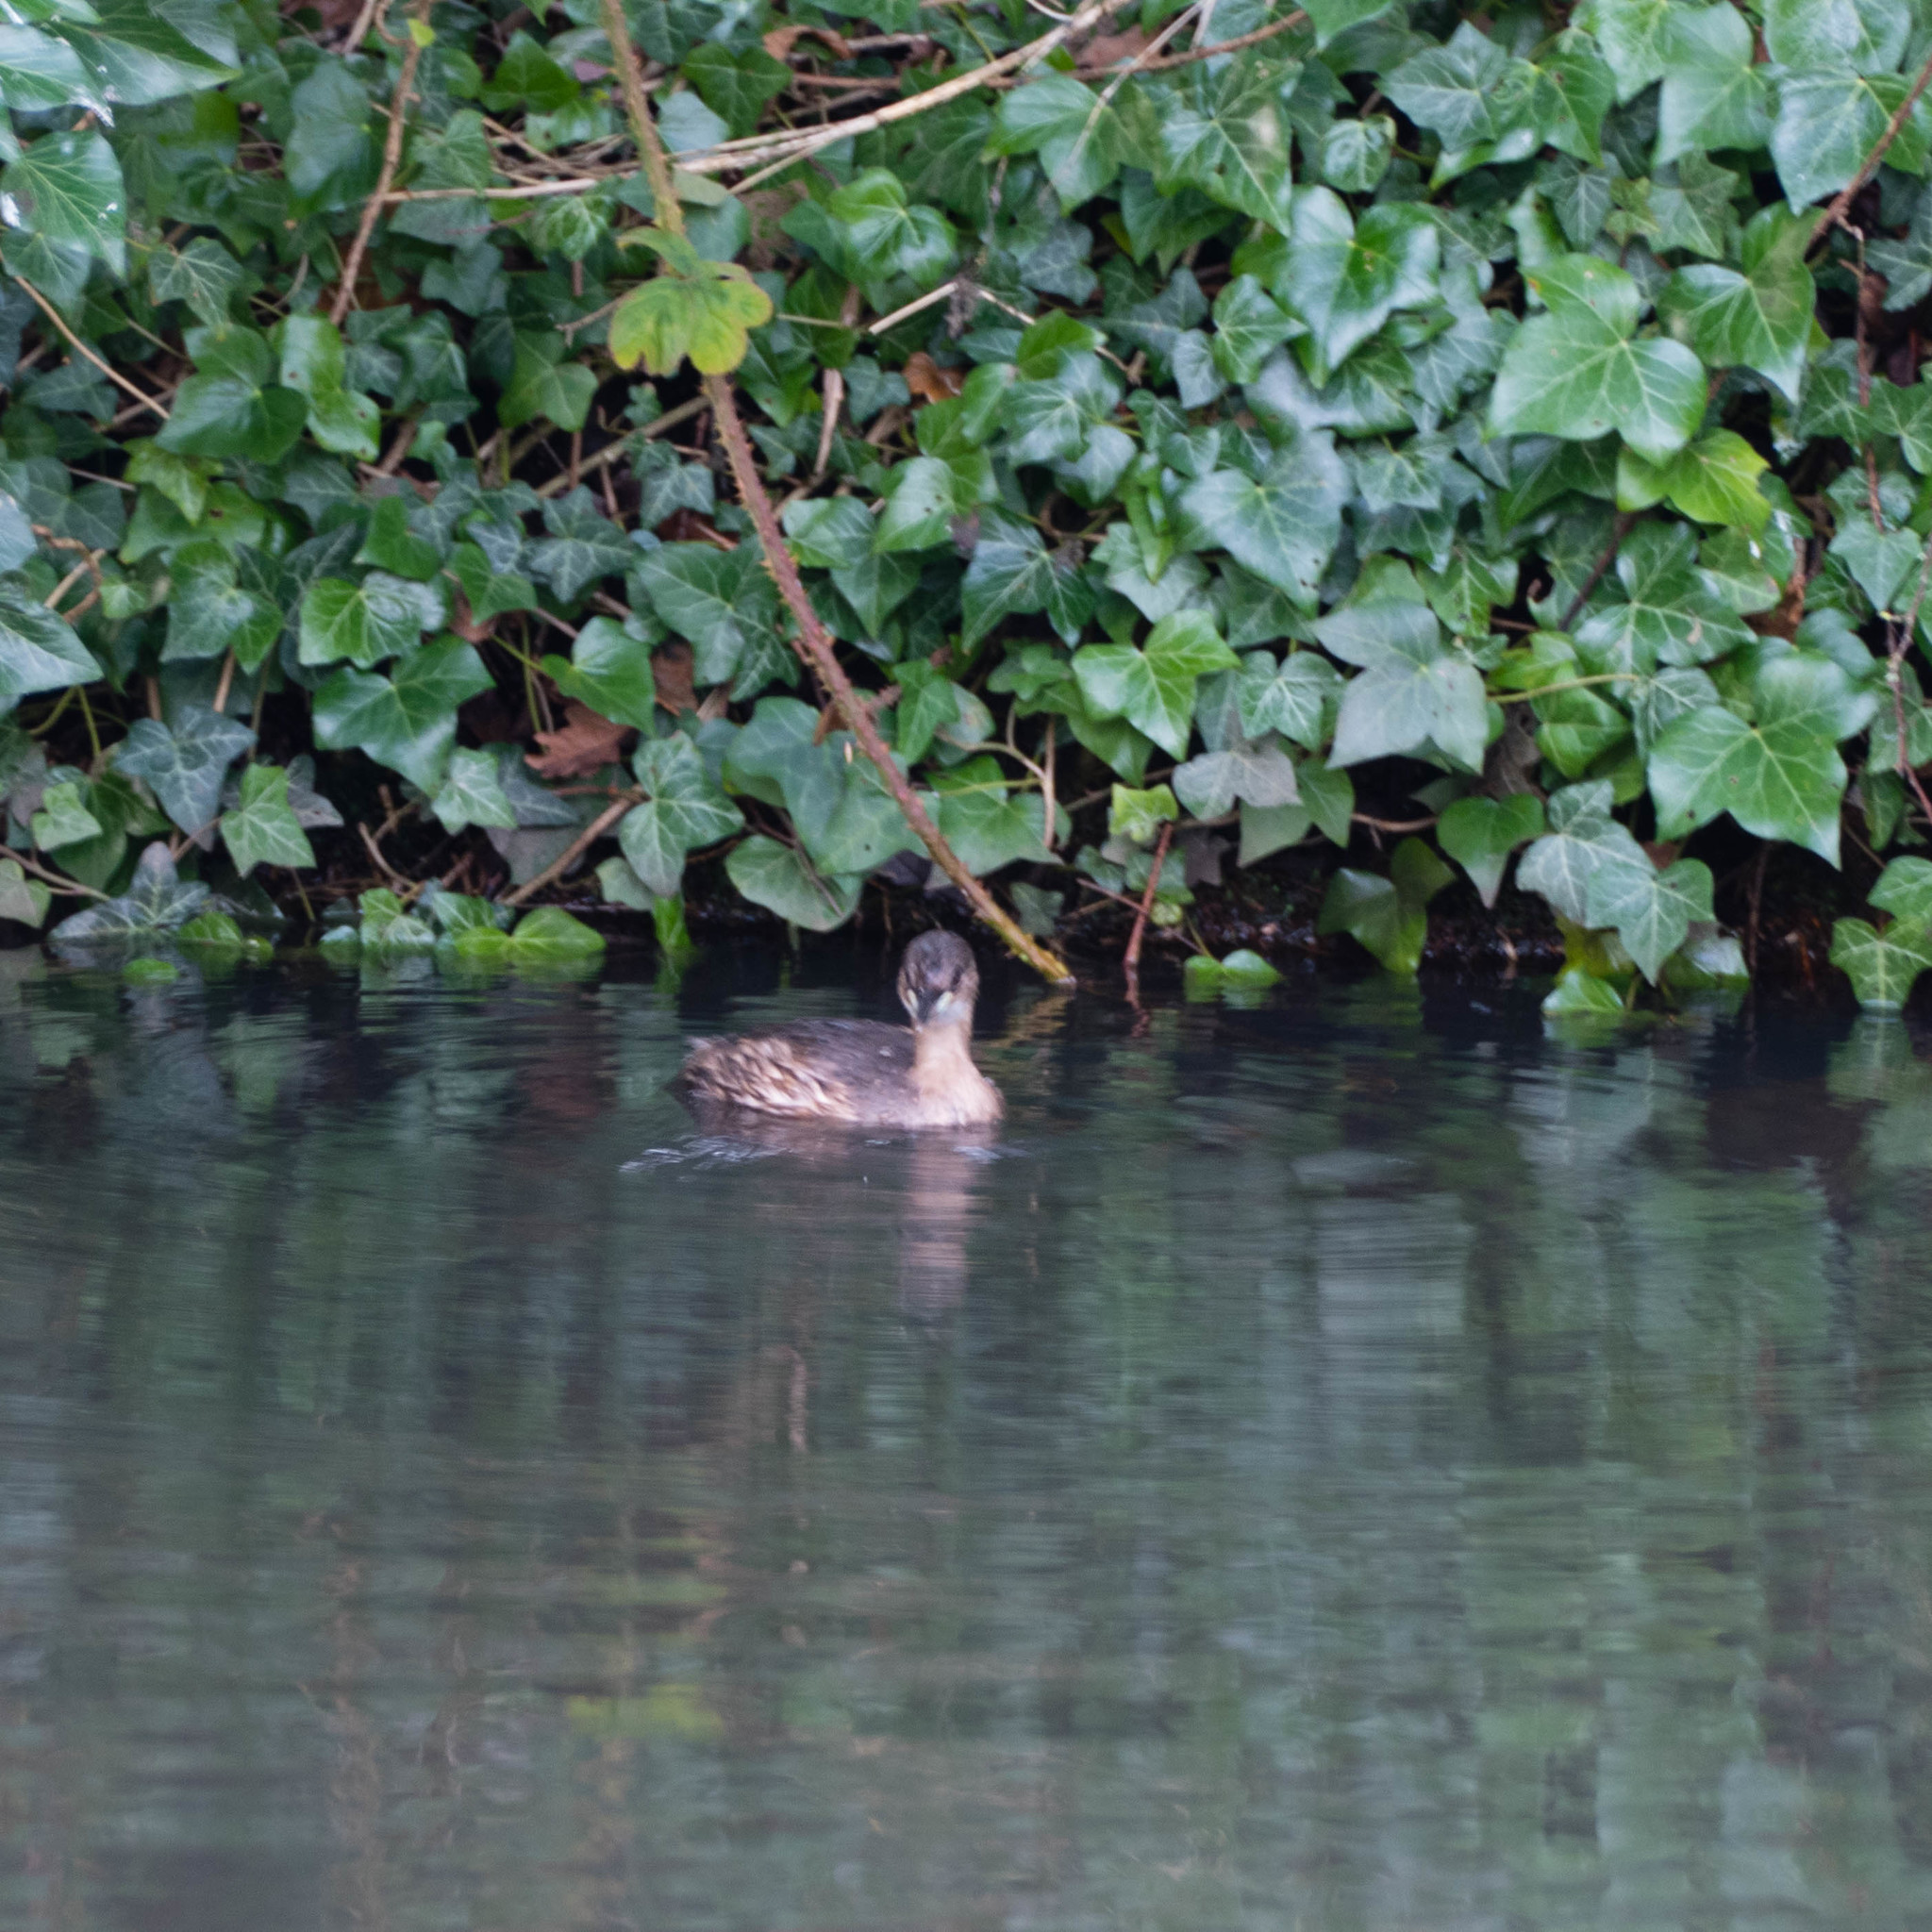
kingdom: Animalia
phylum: Chordata
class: Aves
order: Podicipediformes
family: Podicipedidae
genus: Tachybaptus
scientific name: Tachybaptus ruficollis
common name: Little grebe
